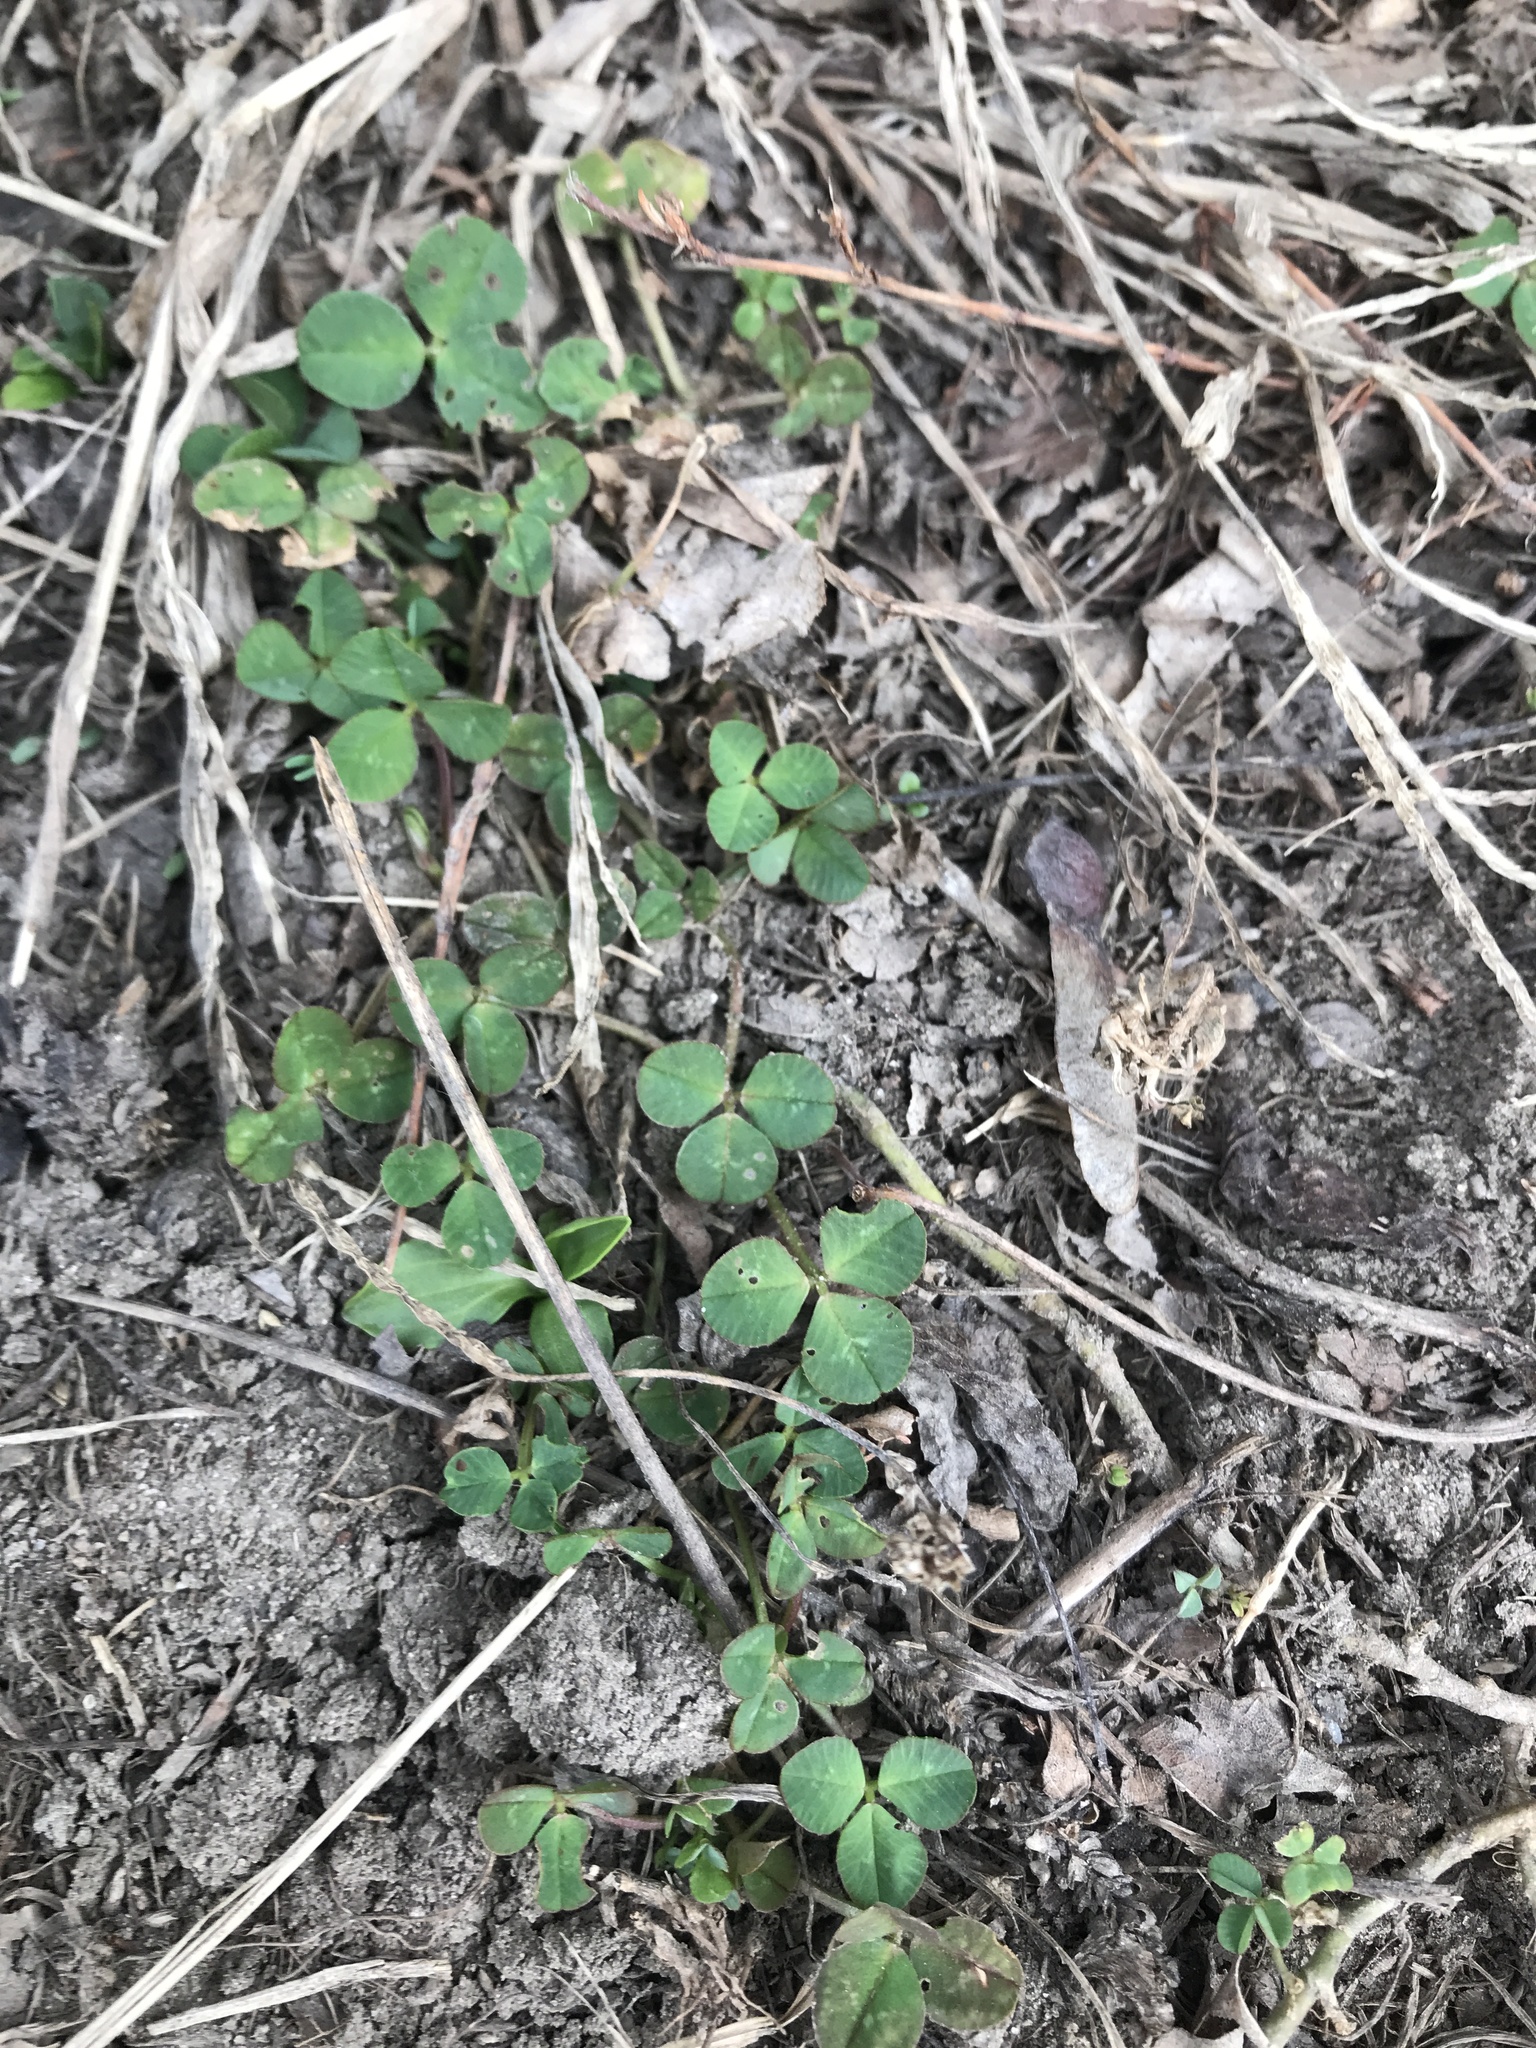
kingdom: Plantae
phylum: Tracheophyta
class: Magnoliopsida
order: Fabales
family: Fabaceae
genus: Trifolium
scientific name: Trifolium repens
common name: White clover
